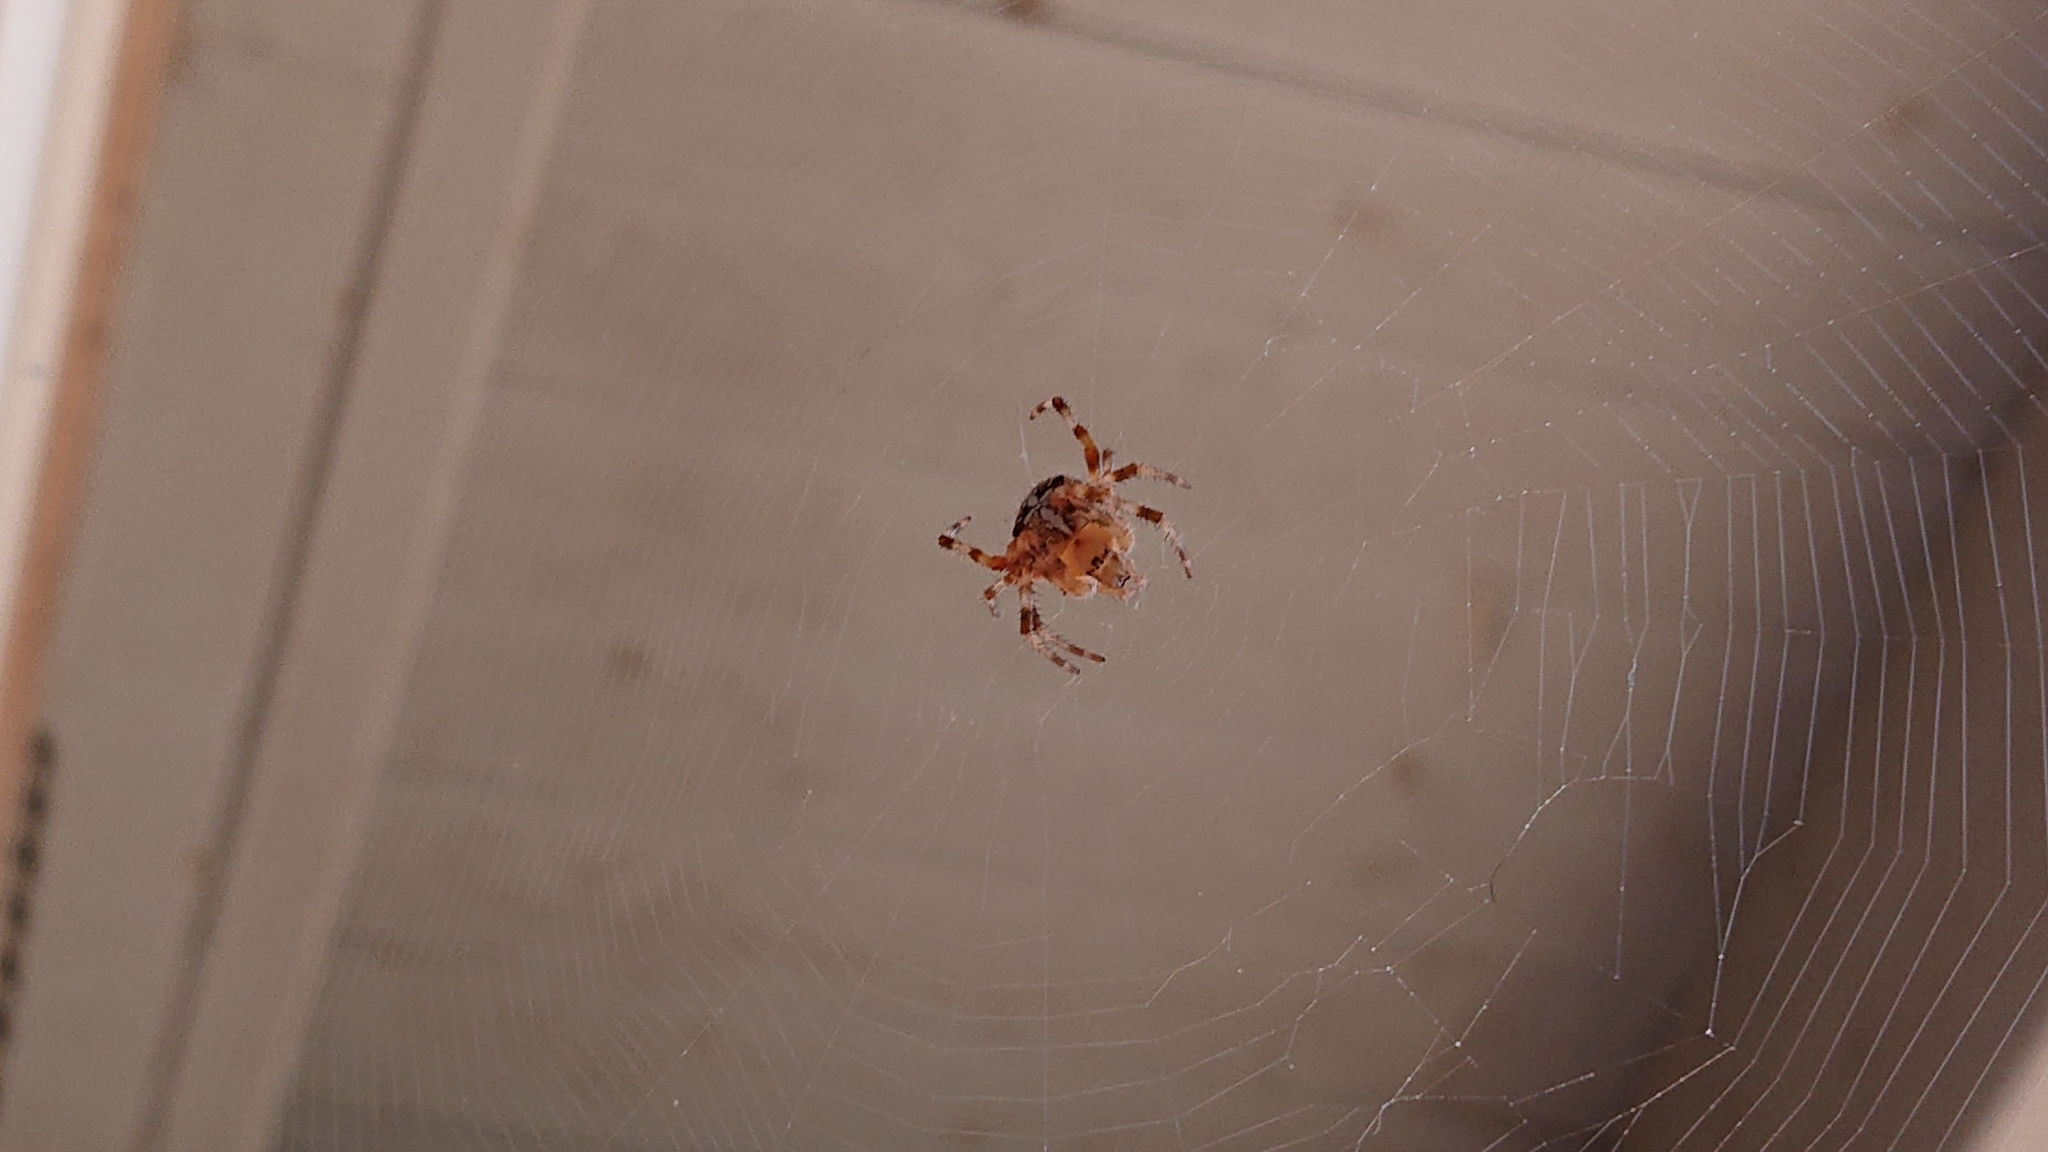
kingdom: Animalia
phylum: Arthropoda
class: Arachnida
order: Araneae
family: Araneidae
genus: Araneus
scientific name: Araneus diadematus
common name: Cross orbweaver
